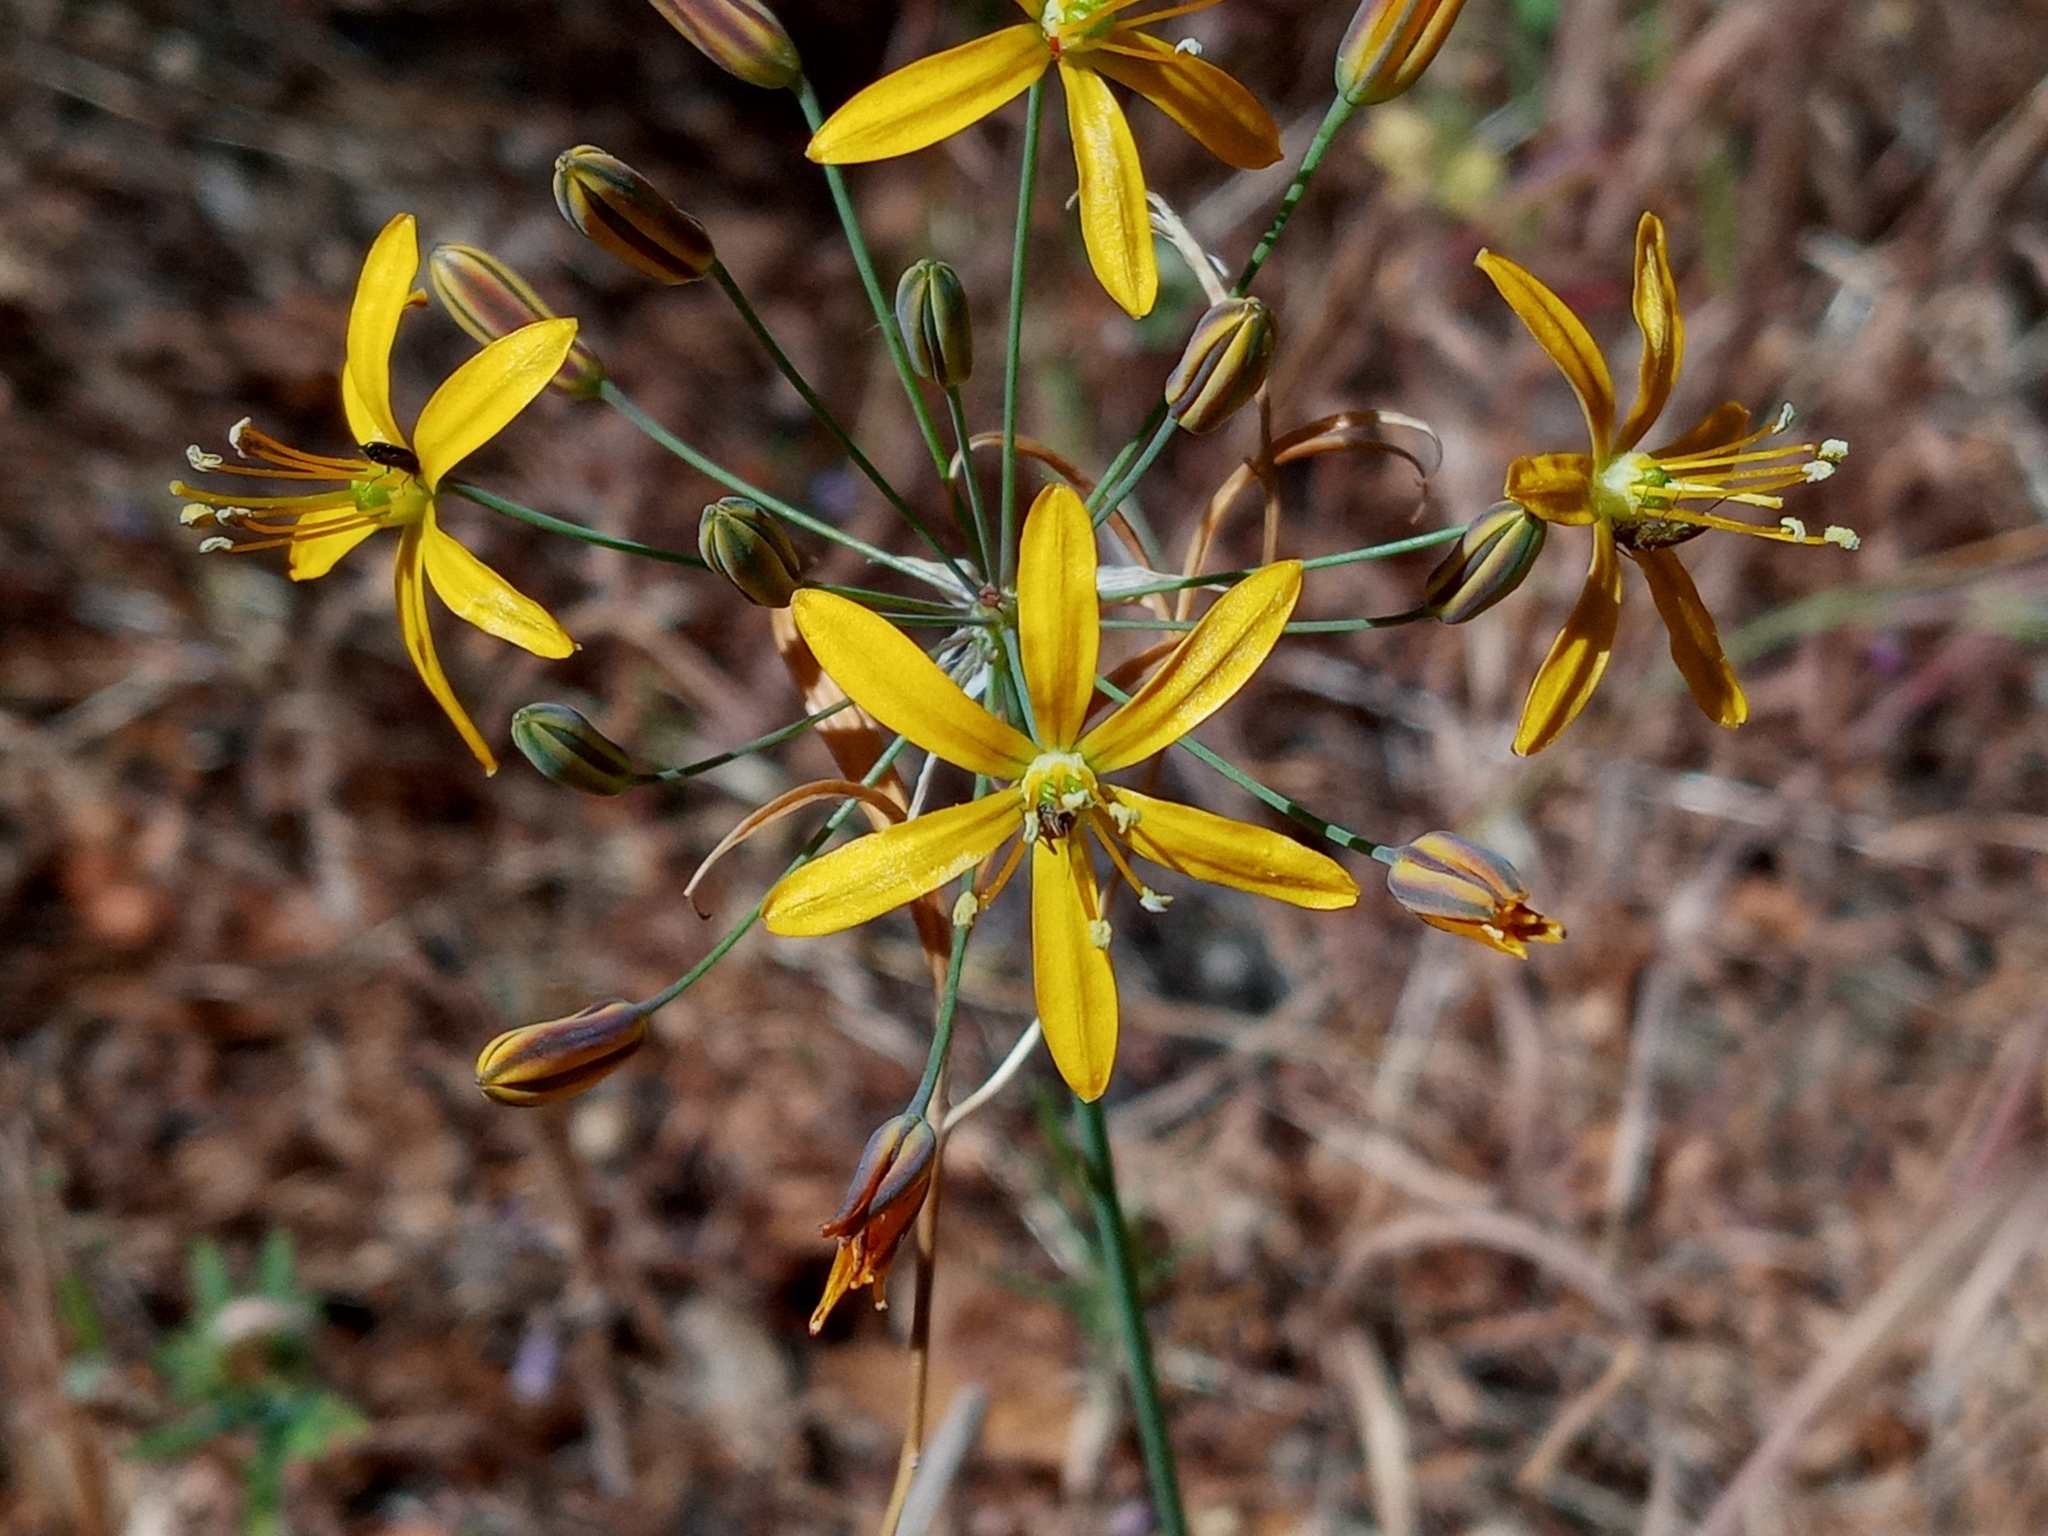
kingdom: Plantae
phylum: Tracheophyta
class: Liliopsida
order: Asparagales
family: Asparagaceae
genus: Bloomeria
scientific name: Bloomeria crocea
